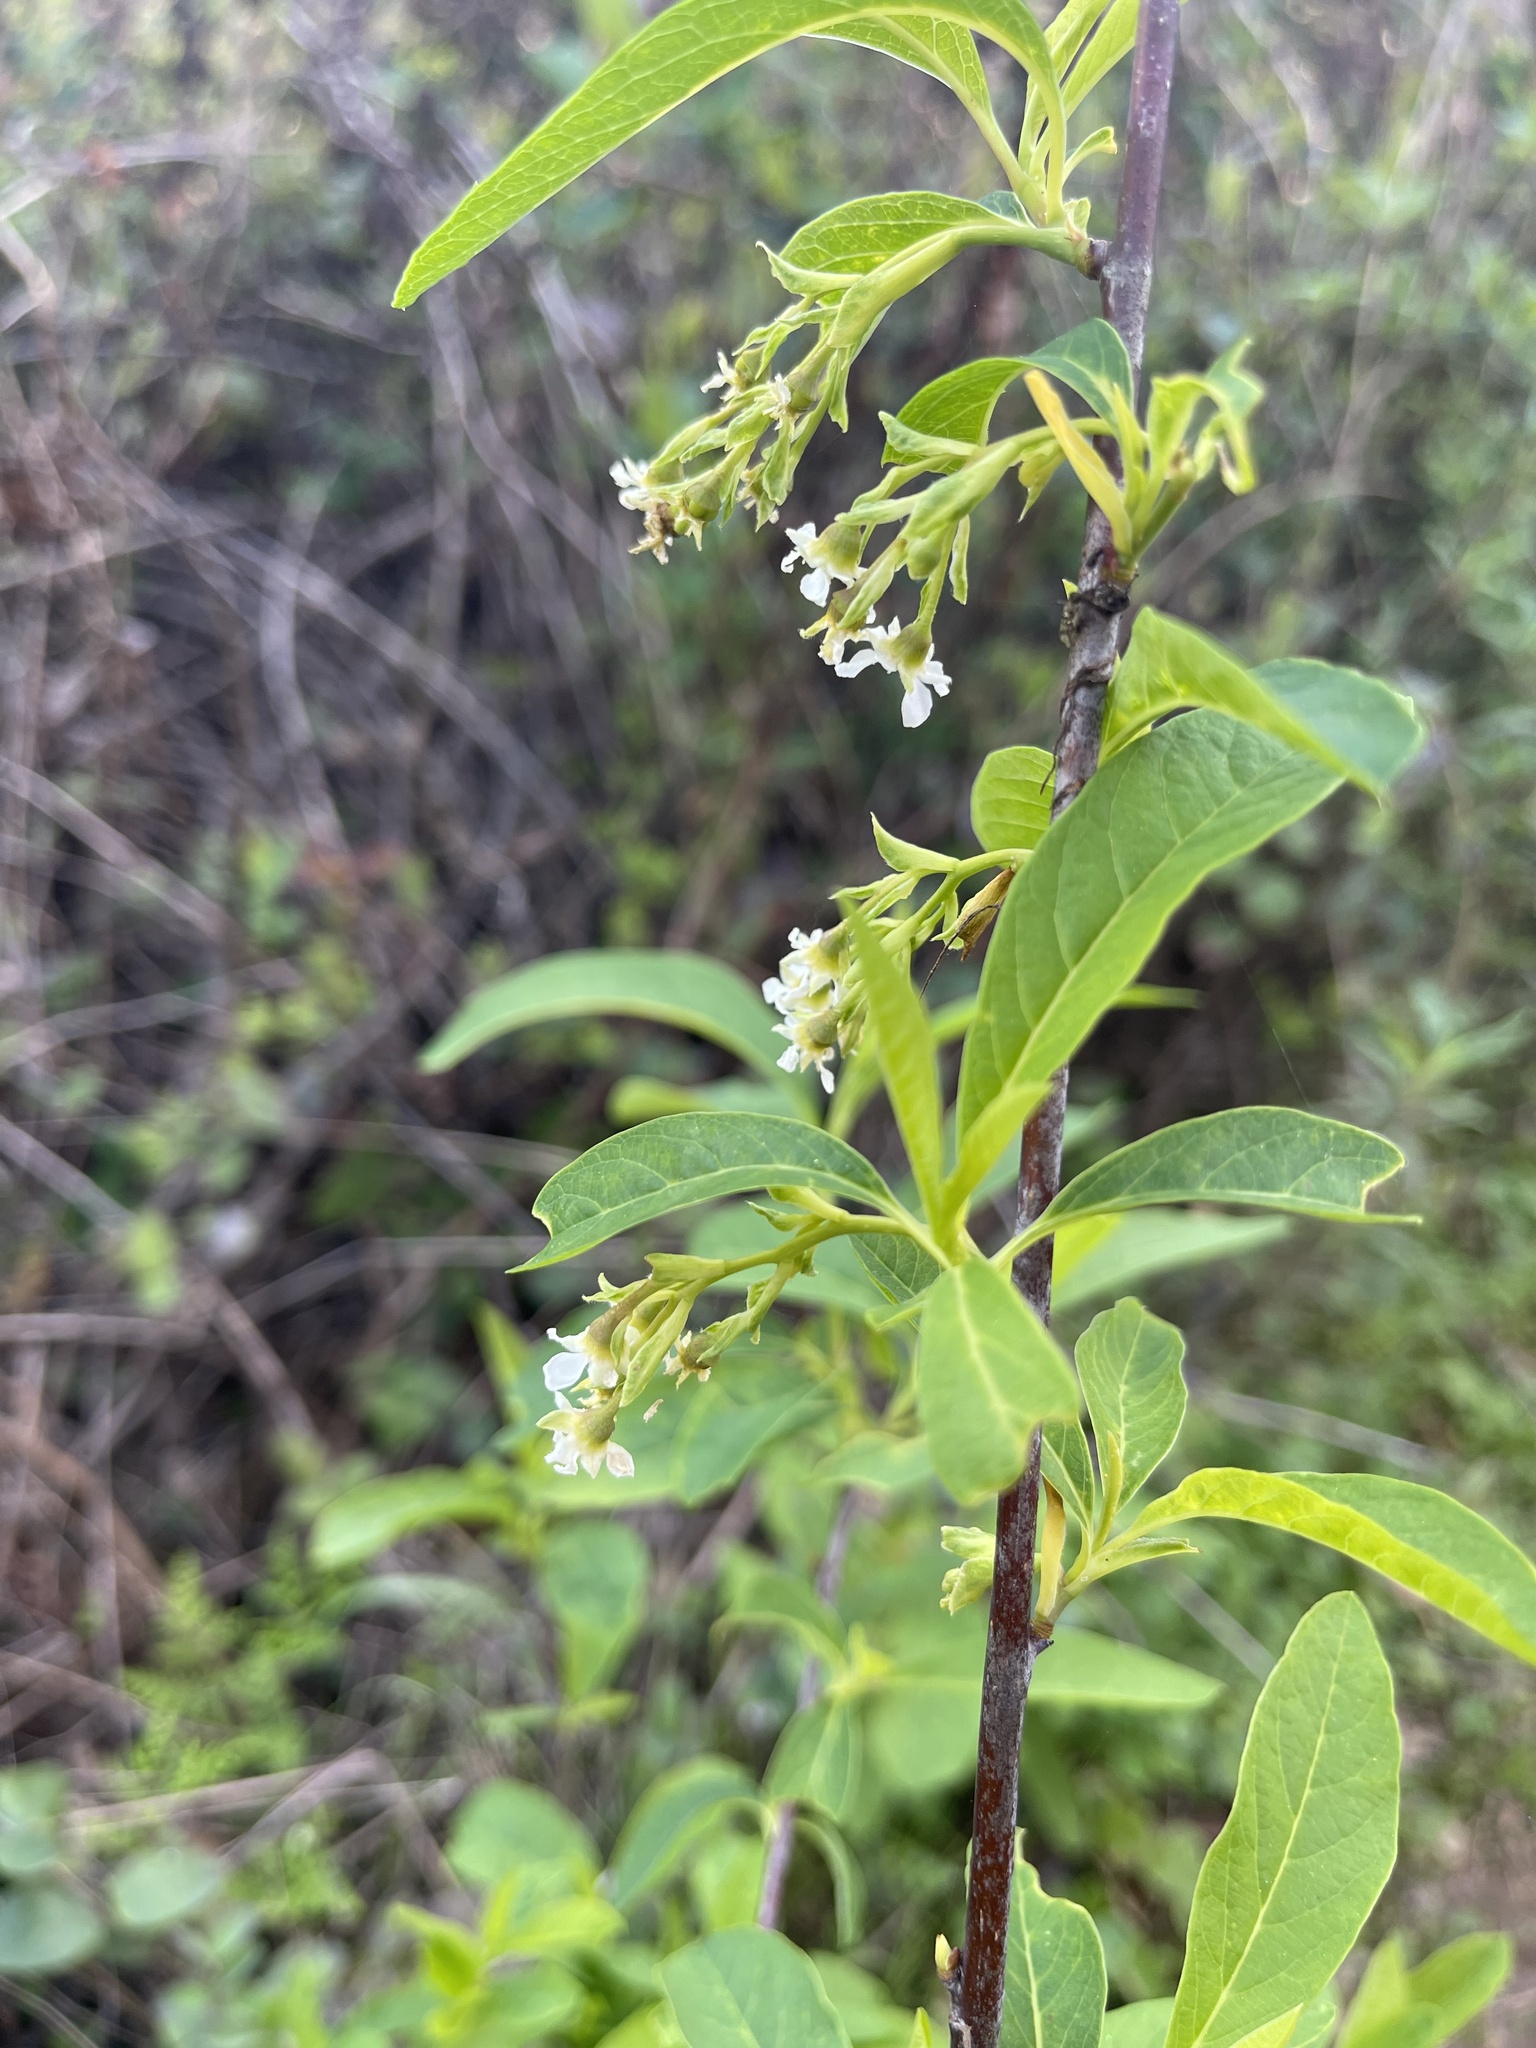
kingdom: Plantae
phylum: Tracheophyta
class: Magnoliopsida
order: Rosales
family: Rosaceae
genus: Oemleria
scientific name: Oemleria cerasiformis
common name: Osoberry
